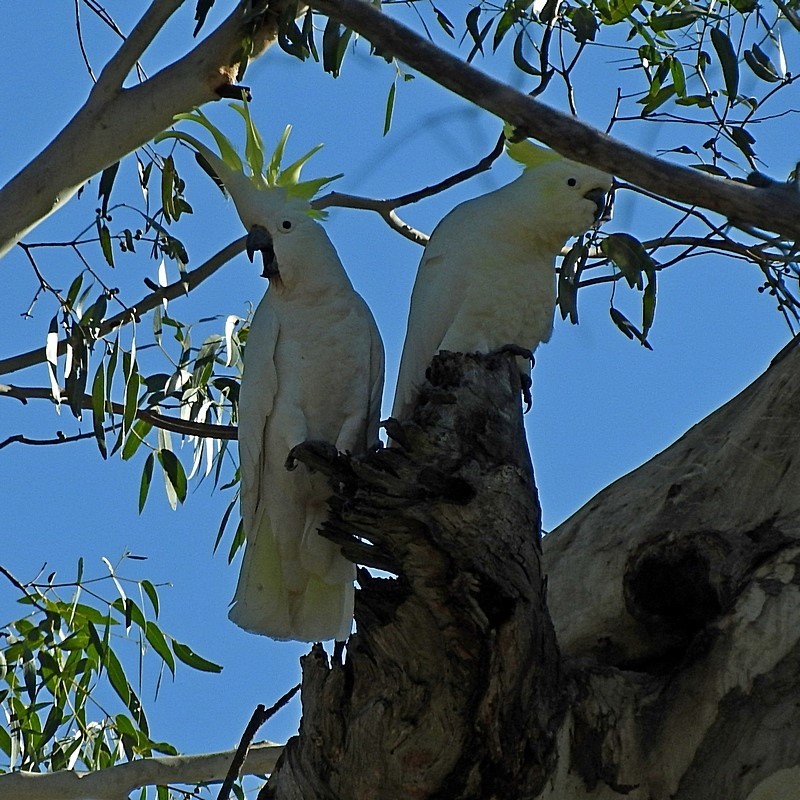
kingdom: Animalia
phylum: Chordata
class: Aves
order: Psittaciformes
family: Psittacidae
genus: Cacatua
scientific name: Cacatua galerita
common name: Sulphur-crested cockatoo
